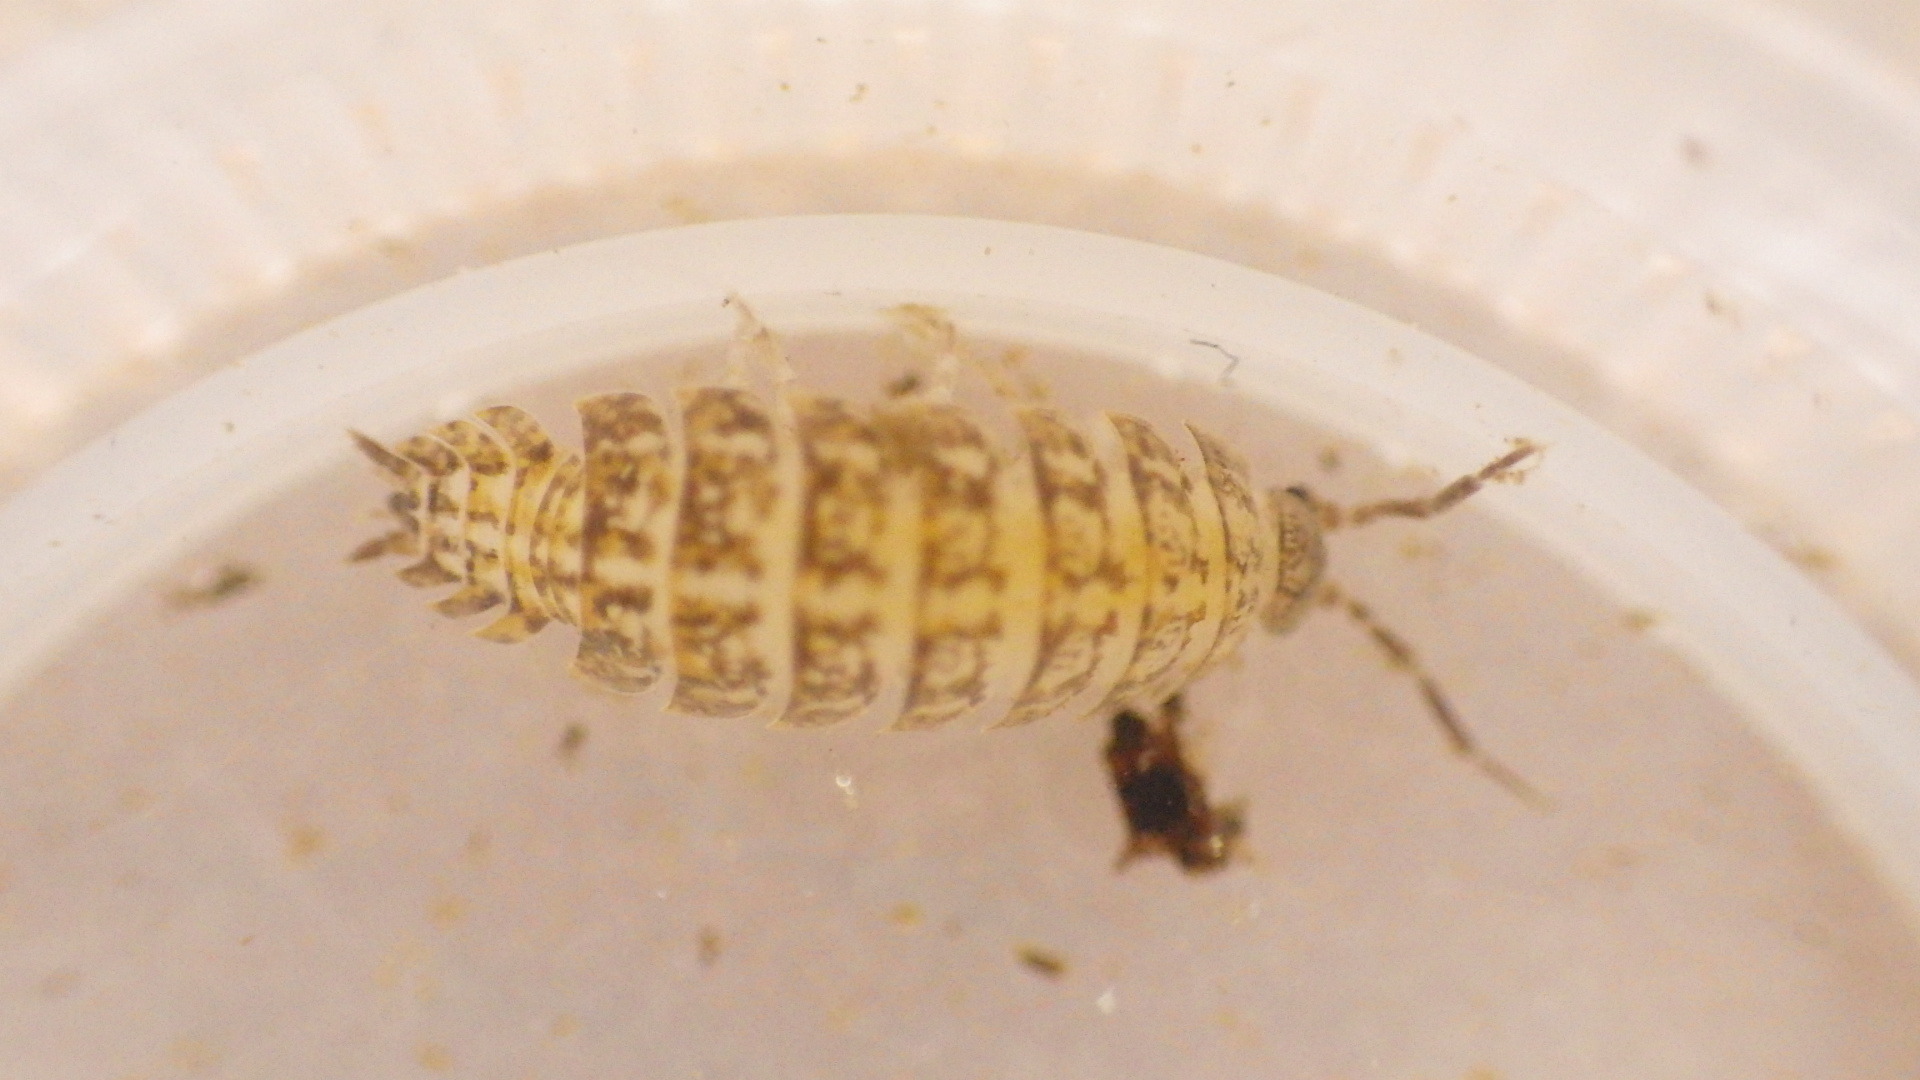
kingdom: Animalia
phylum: Arthropoda
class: Malacostraca
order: Isopoda
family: Trachelipodidae
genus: Trachelipus
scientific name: Trachelipus rathkii
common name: Isopod
